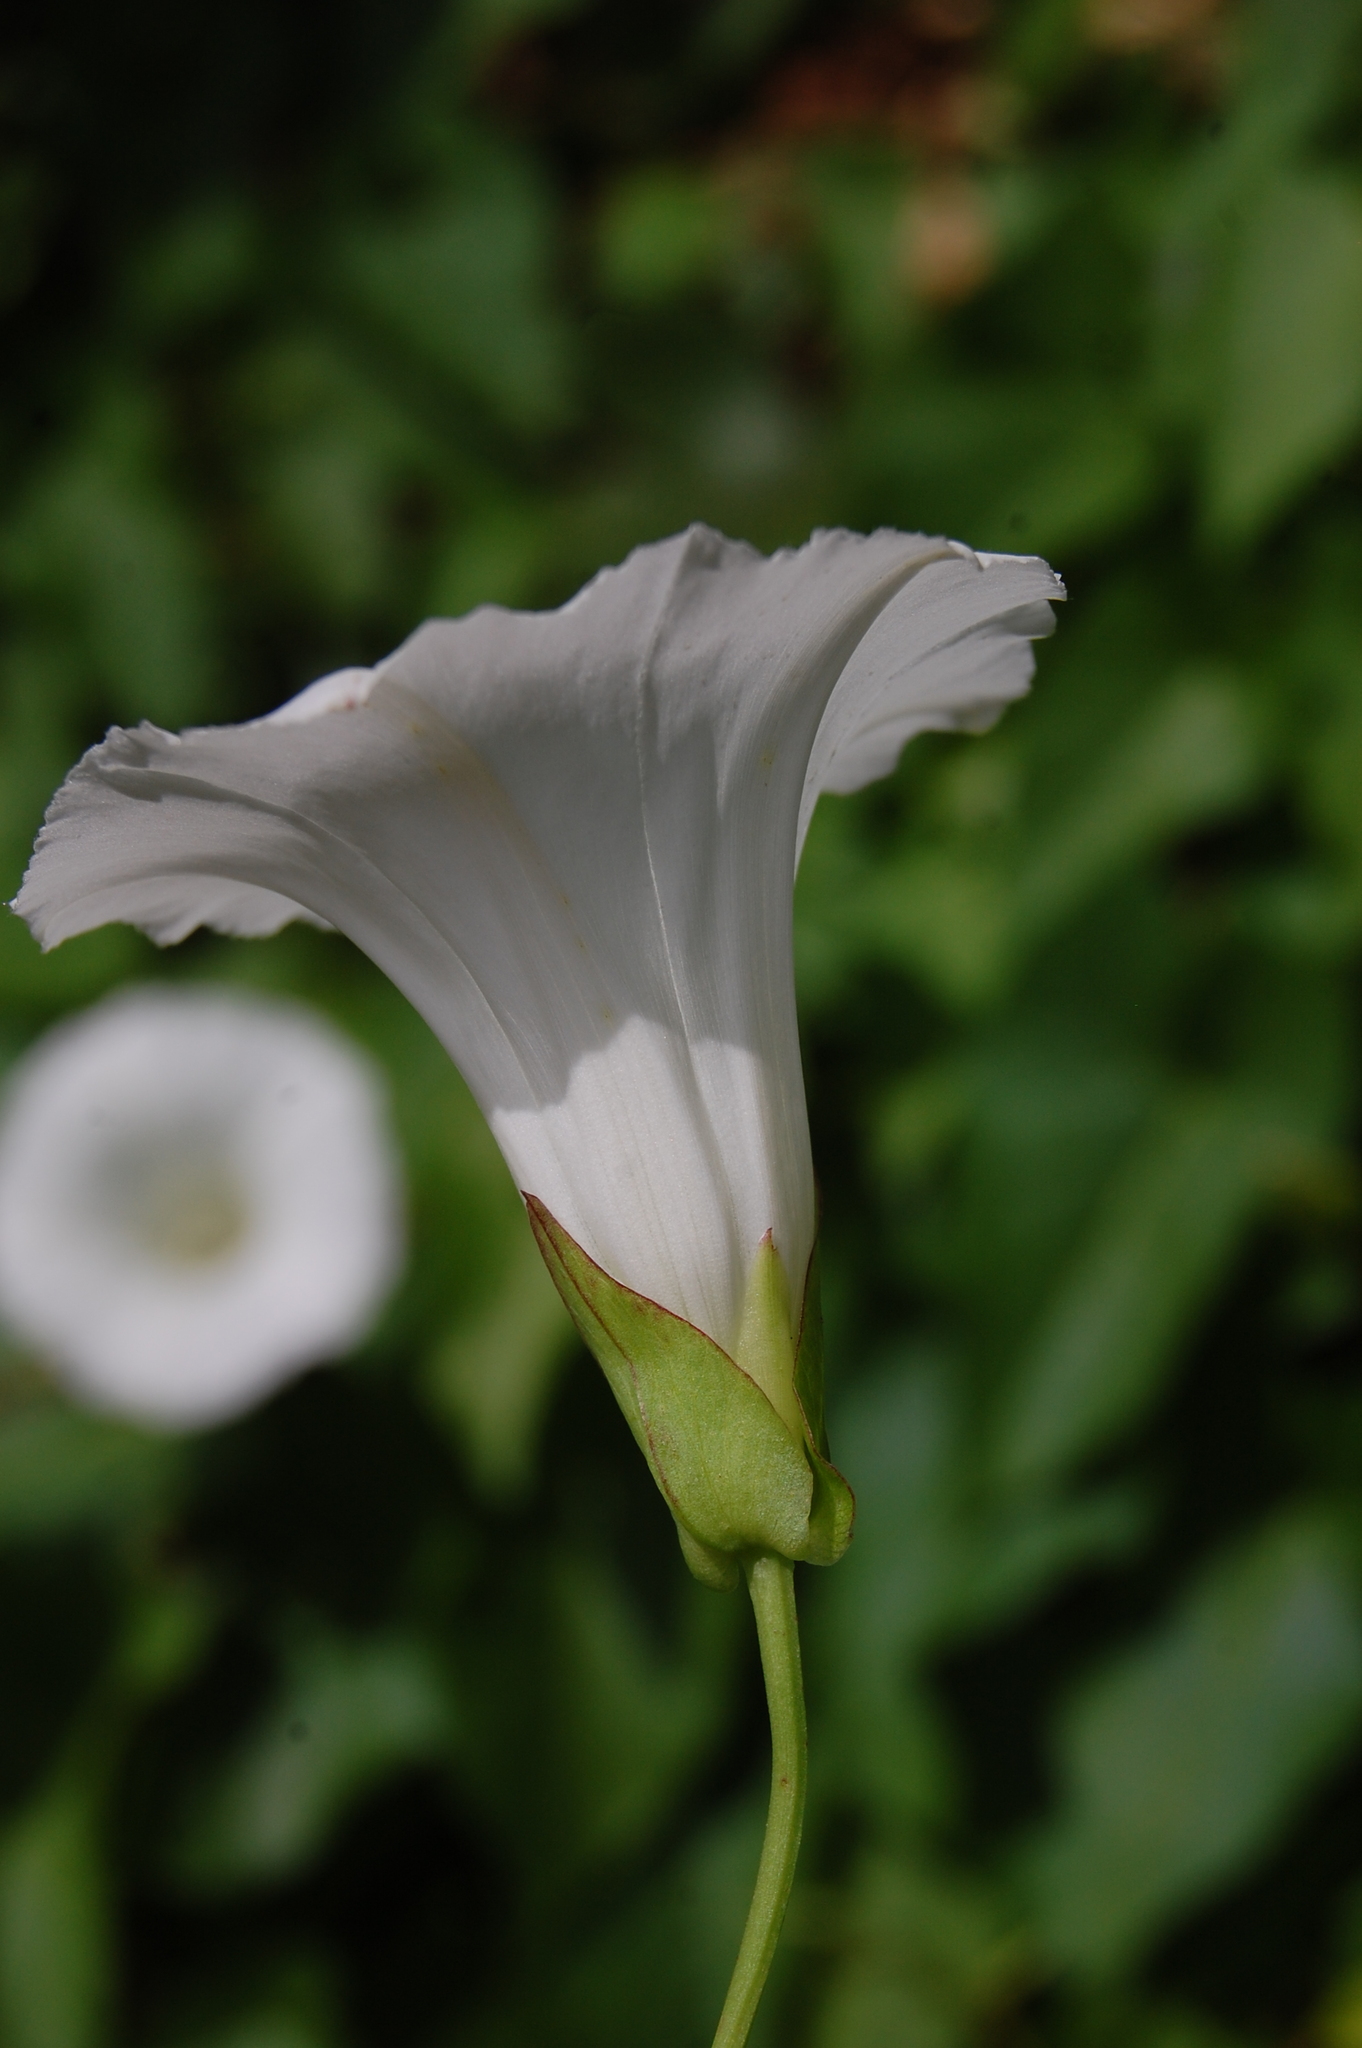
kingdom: Plantae
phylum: Tracheophyta
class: Magnoliopsida
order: Solanales
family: Convolvulaceae
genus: Calystegia
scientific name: Calystegia sepium
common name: Hedge bindweed
